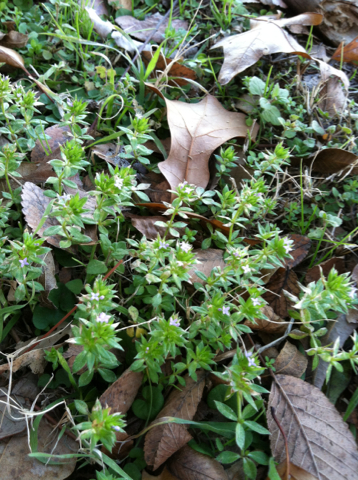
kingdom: Plantae
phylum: Tracheophyta
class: Magnoliopsida
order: Gentianales
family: Rubiaceae
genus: Sherardia
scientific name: Sherardia arvensis
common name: Field madder
